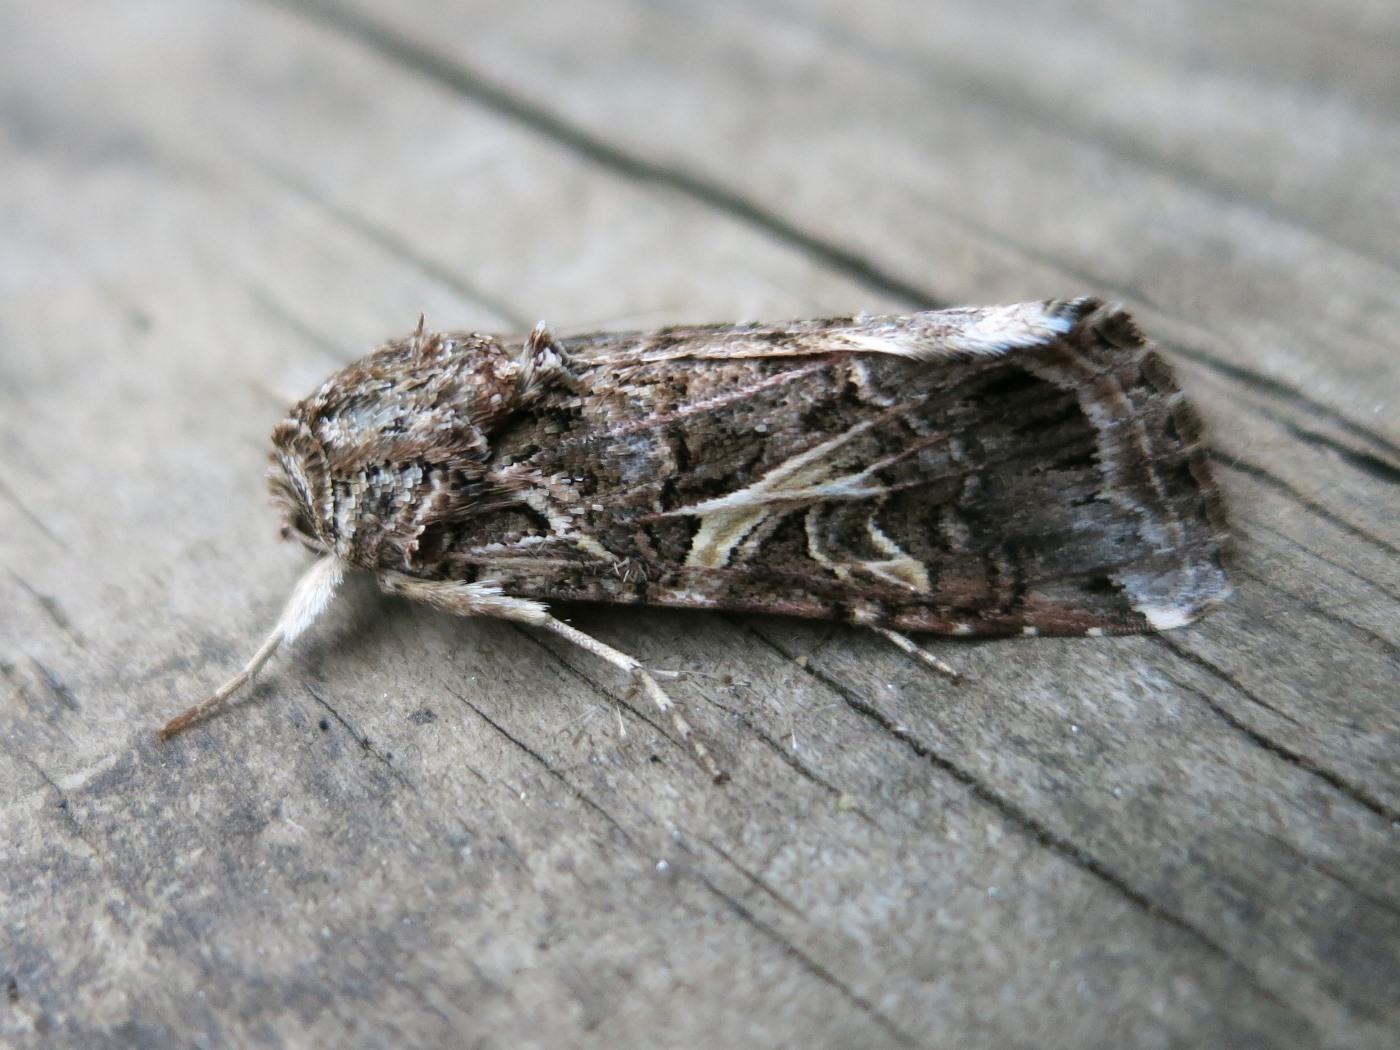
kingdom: Animalia
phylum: Arthropoda
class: Insecta
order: Lepidoptera
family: Noctuidae
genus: Spodoptera
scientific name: Spodoptera ornithogalli
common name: Yellow-striped armyworm
